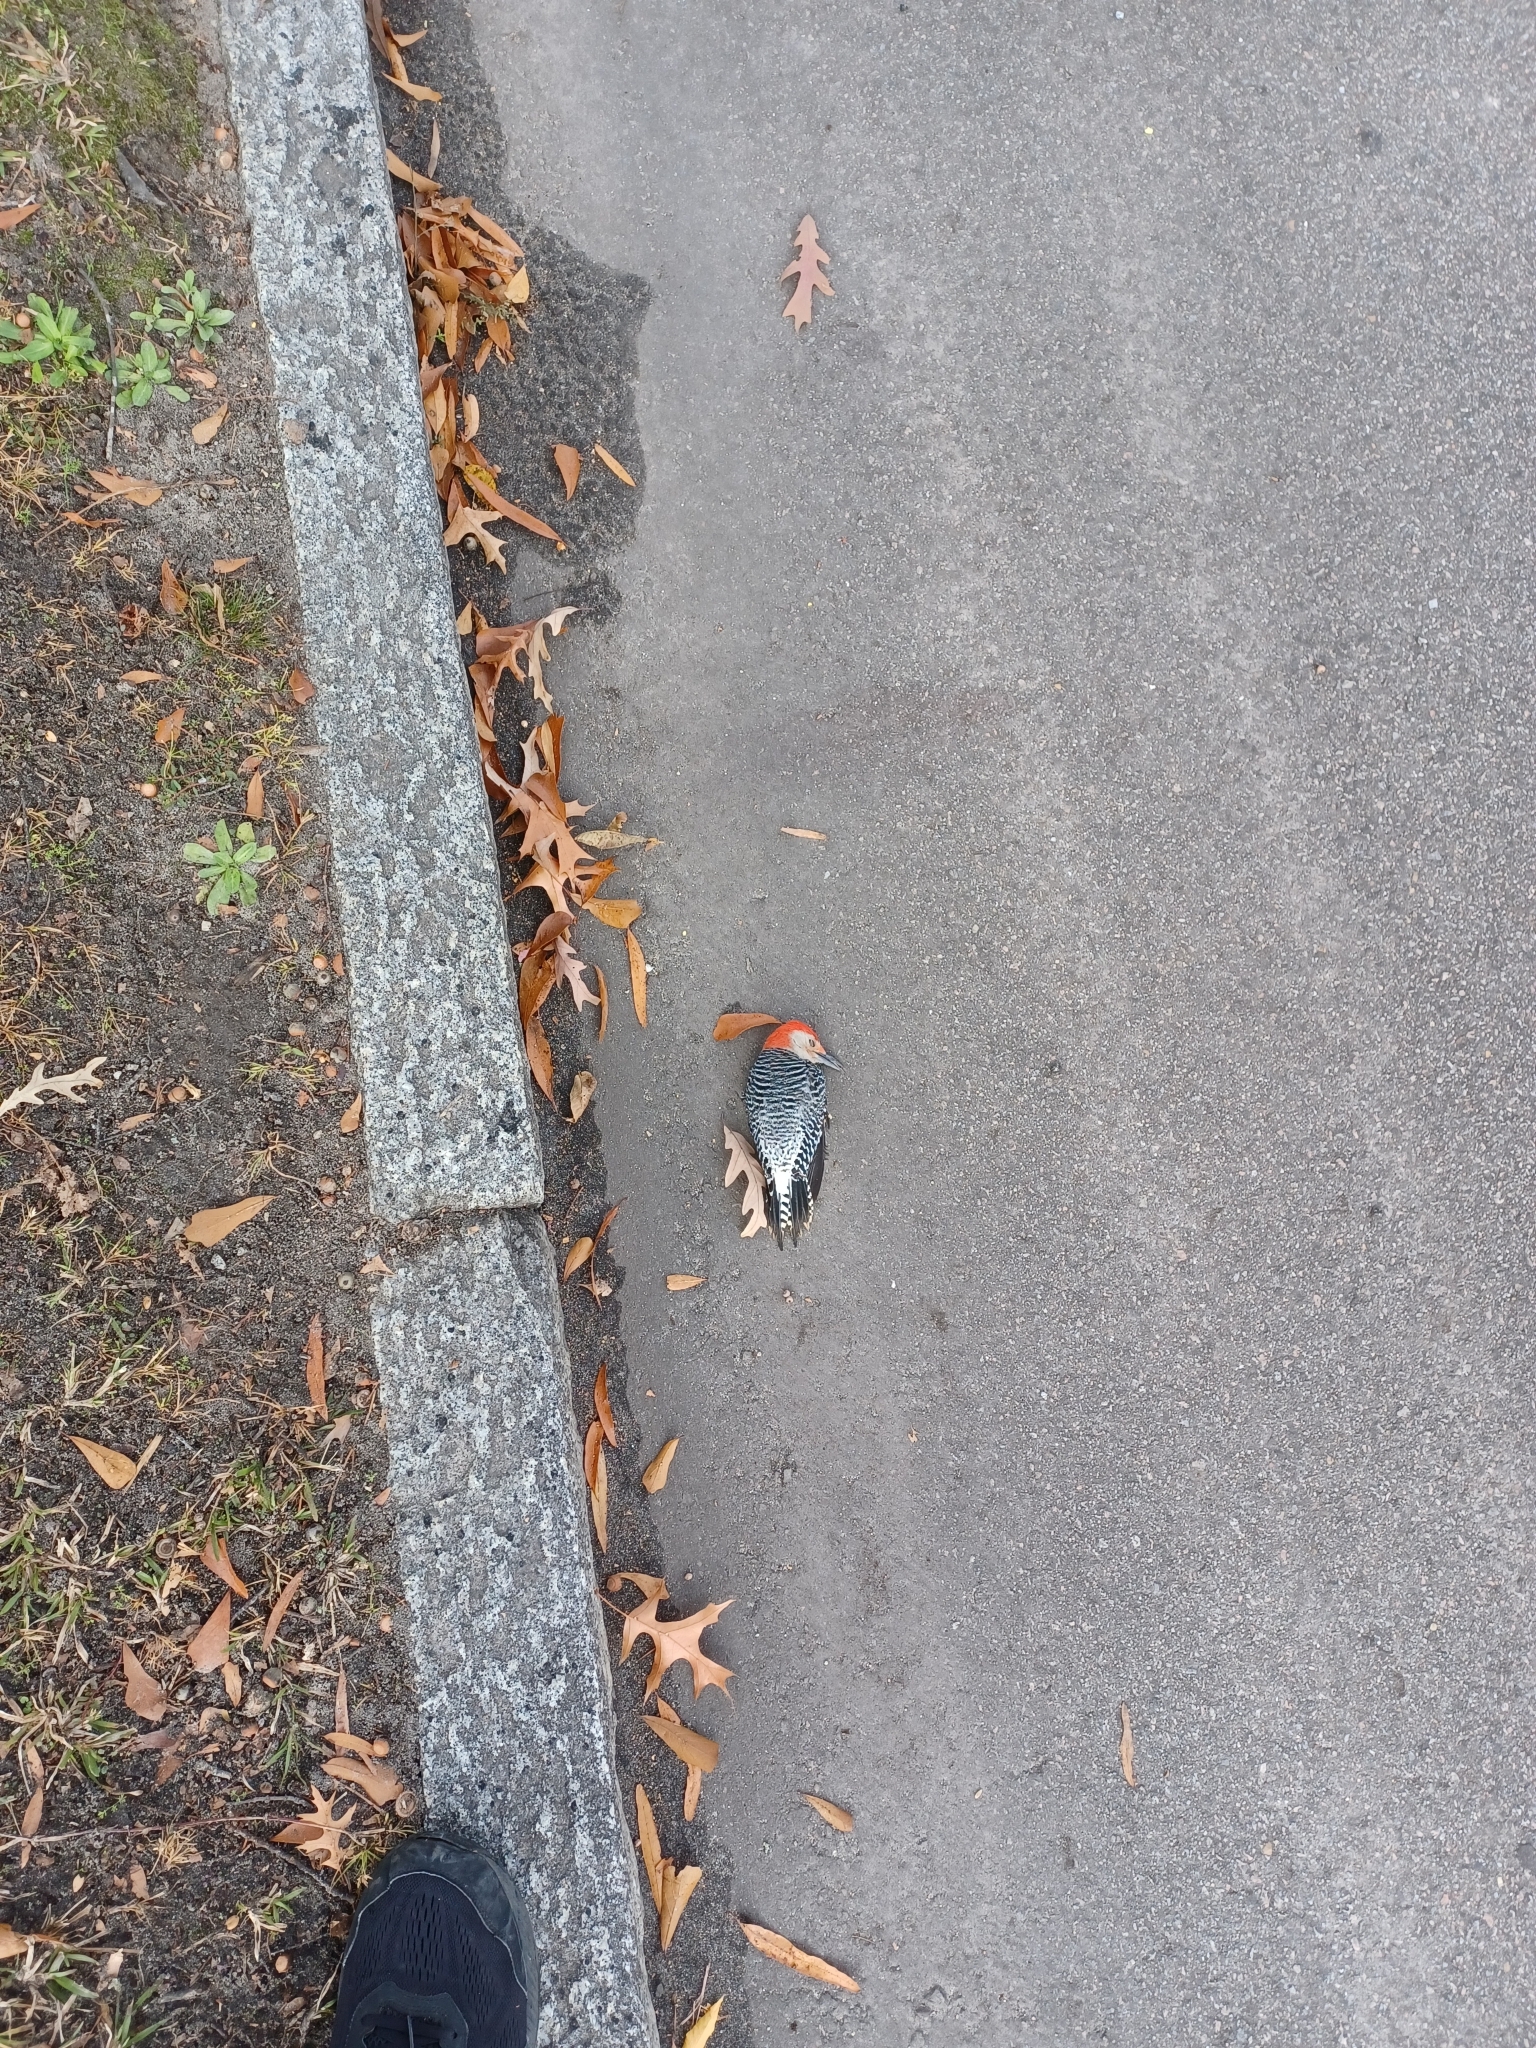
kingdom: Animalia
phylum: Chordata
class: Aves
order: Piciformes
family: Picidae
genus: Melanerpes
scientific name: Melanerpes carolinus
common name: Red-bellied woodpecker
